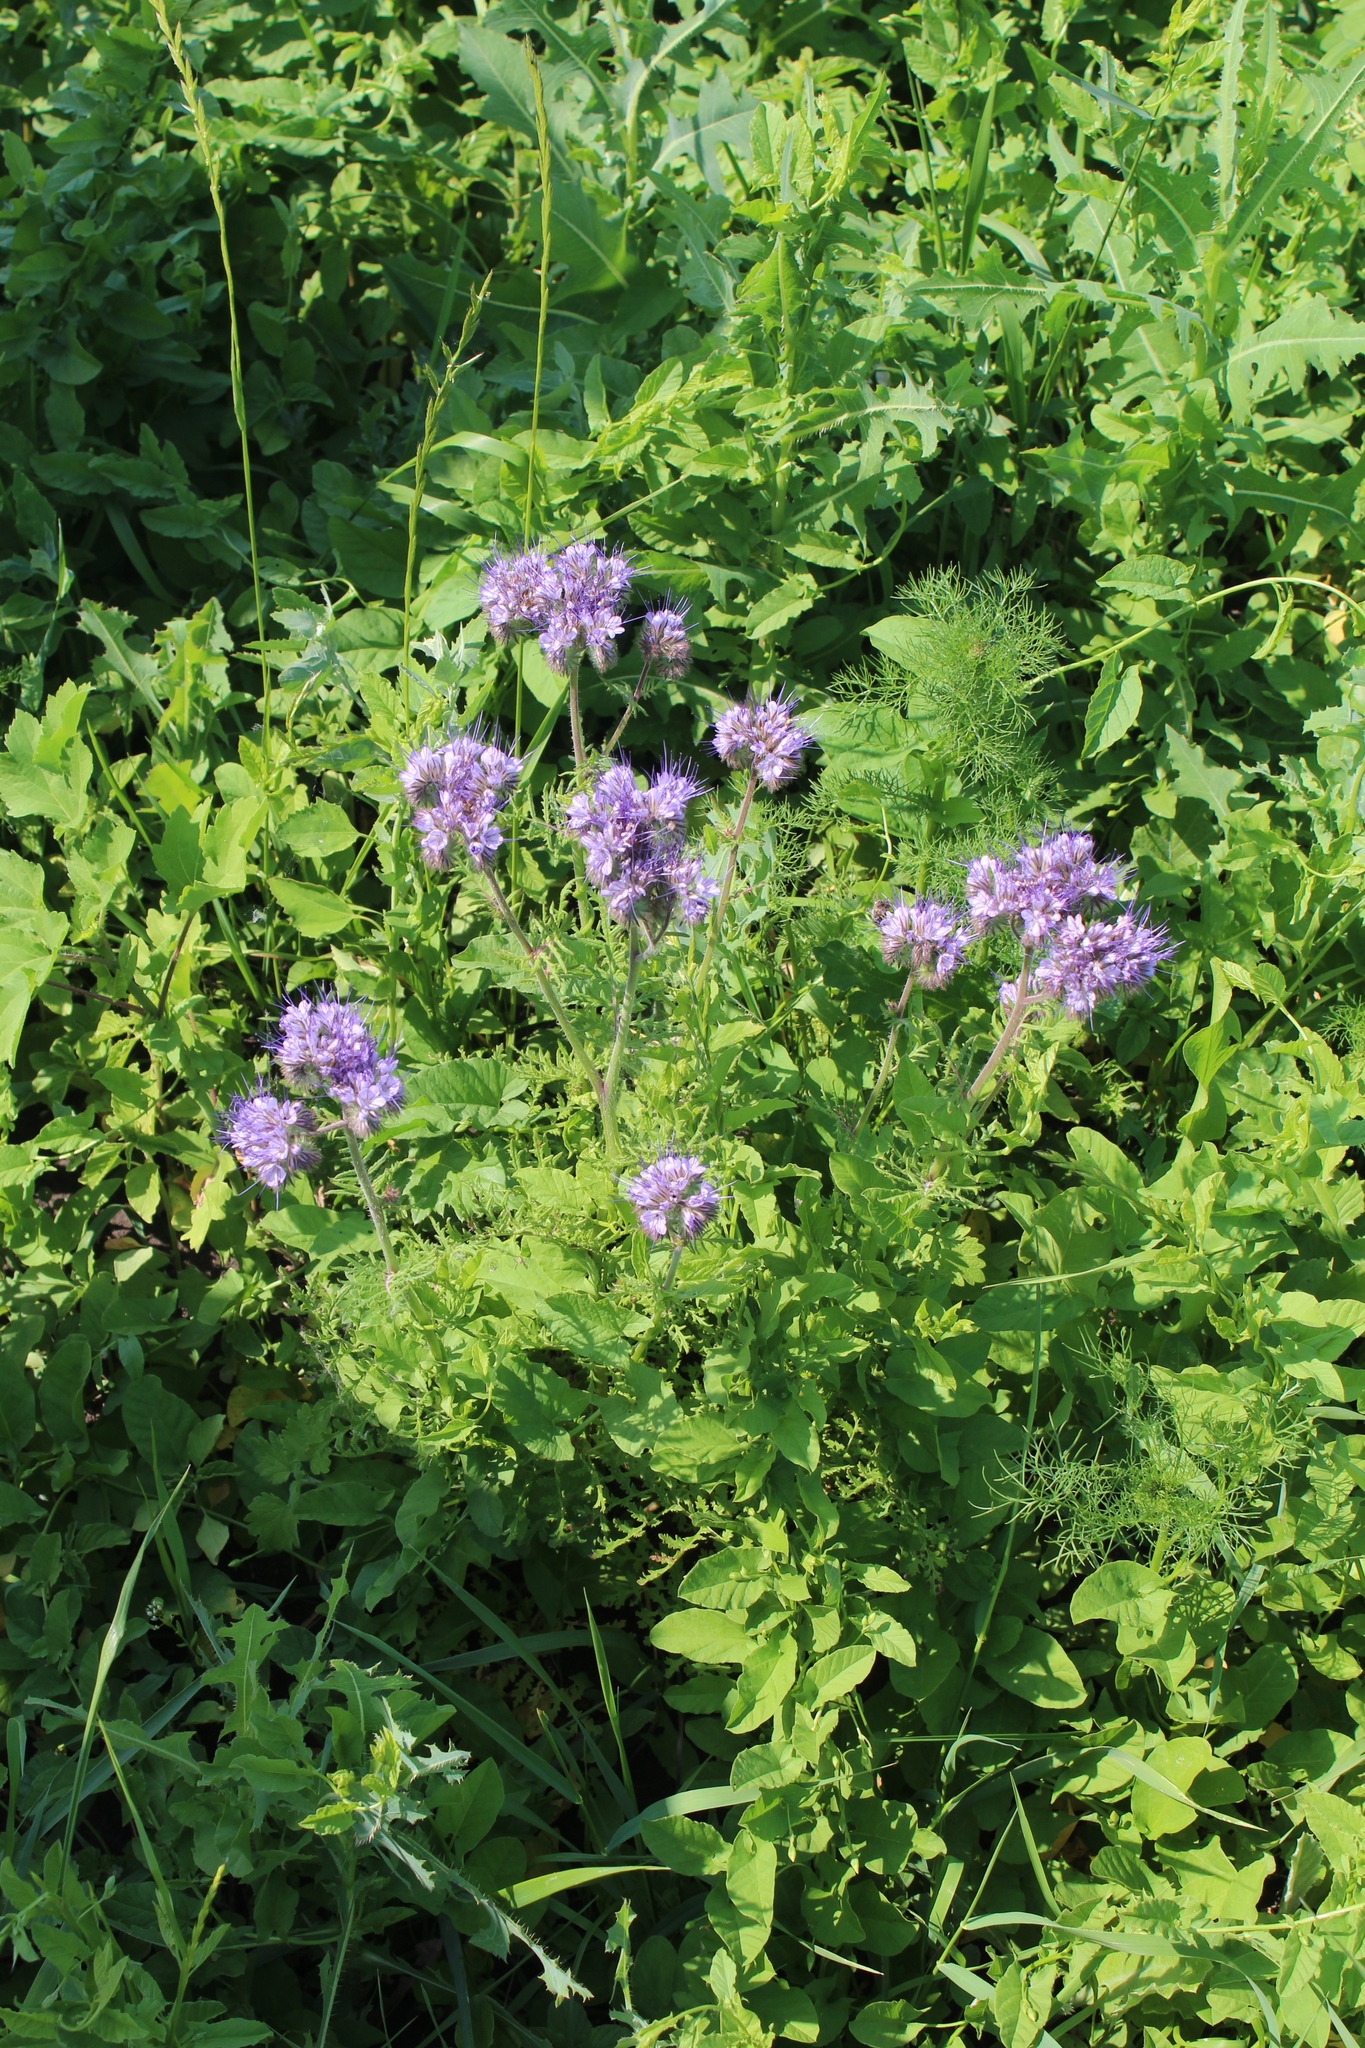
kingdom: Plantae
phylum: Tracheophyta
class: Magnoliopsida
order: Boraginales
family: Hydrophyllaceae
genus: Phacelia
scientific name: Phacelia tanacetifolia
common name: Phacelia
